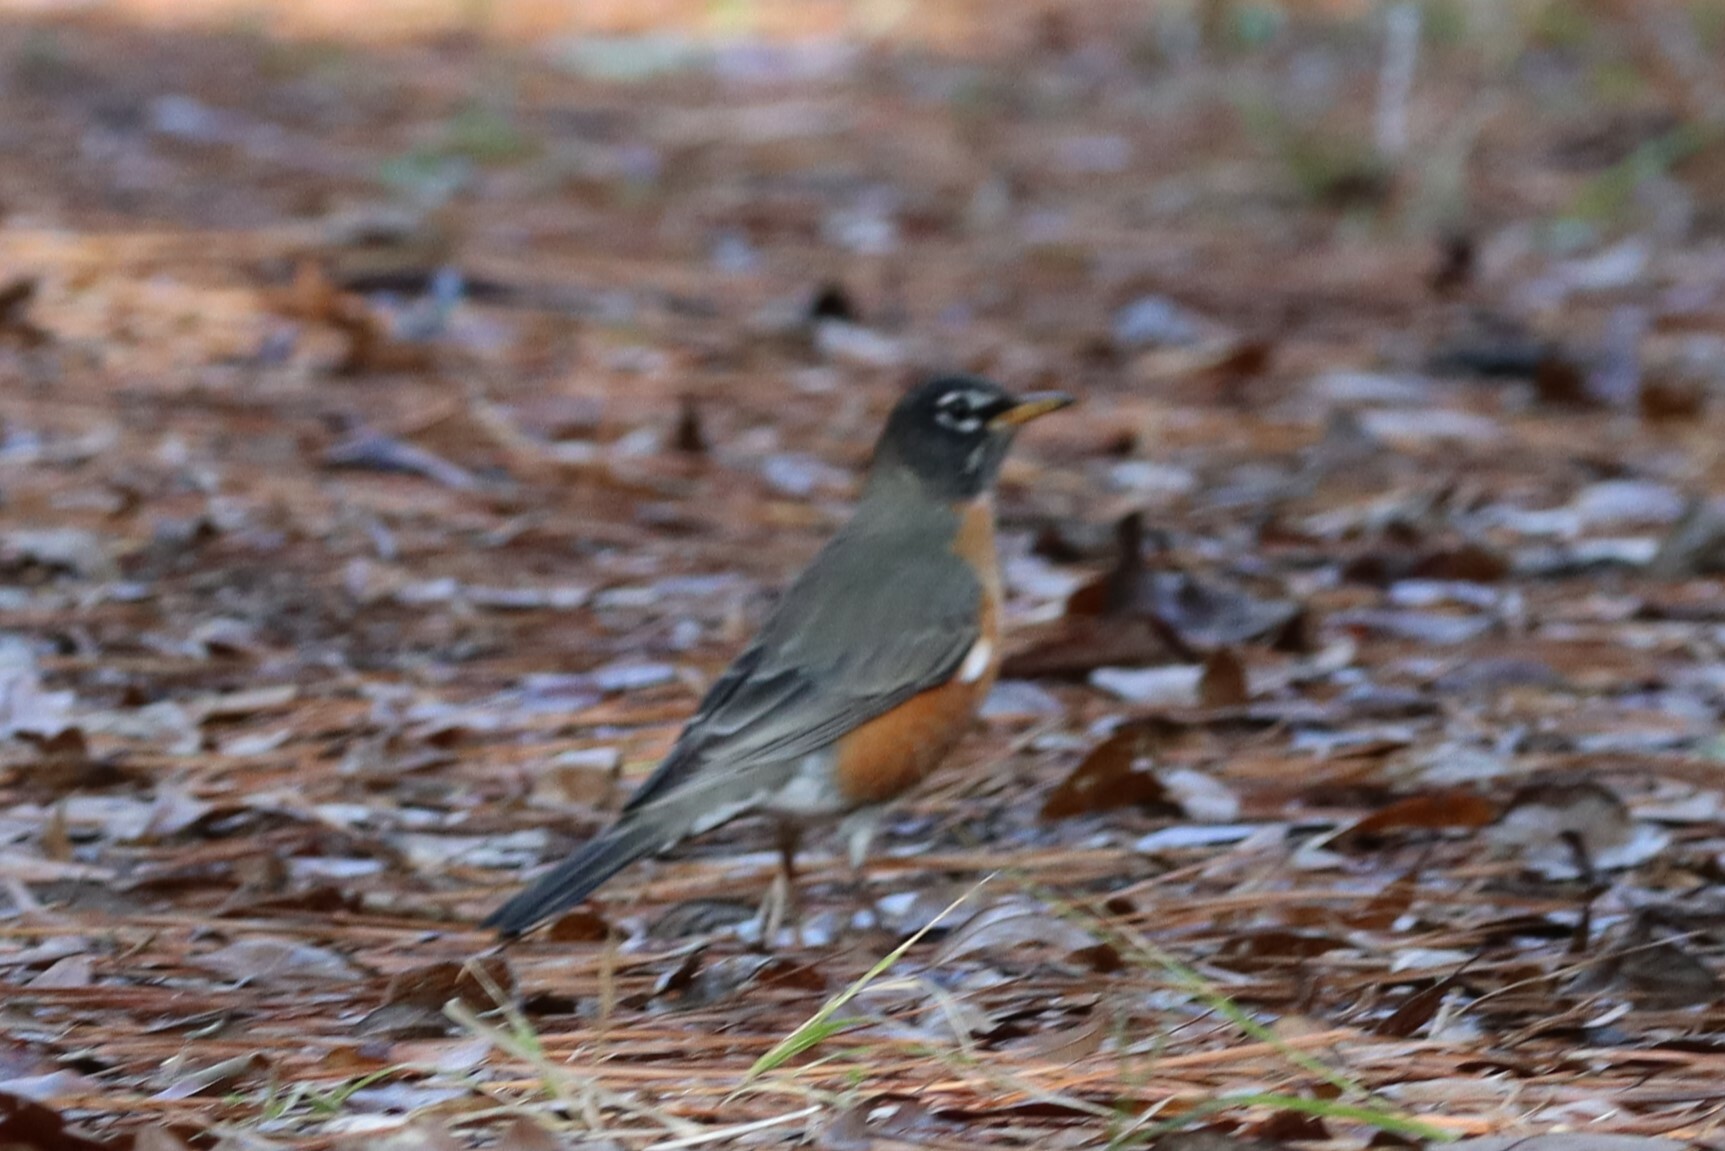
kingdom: Animalia
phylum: Chordata
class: Aves
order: Passeriformes
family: Turdidae
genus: Turdus
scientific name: Turdus migratorius
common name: American robin
